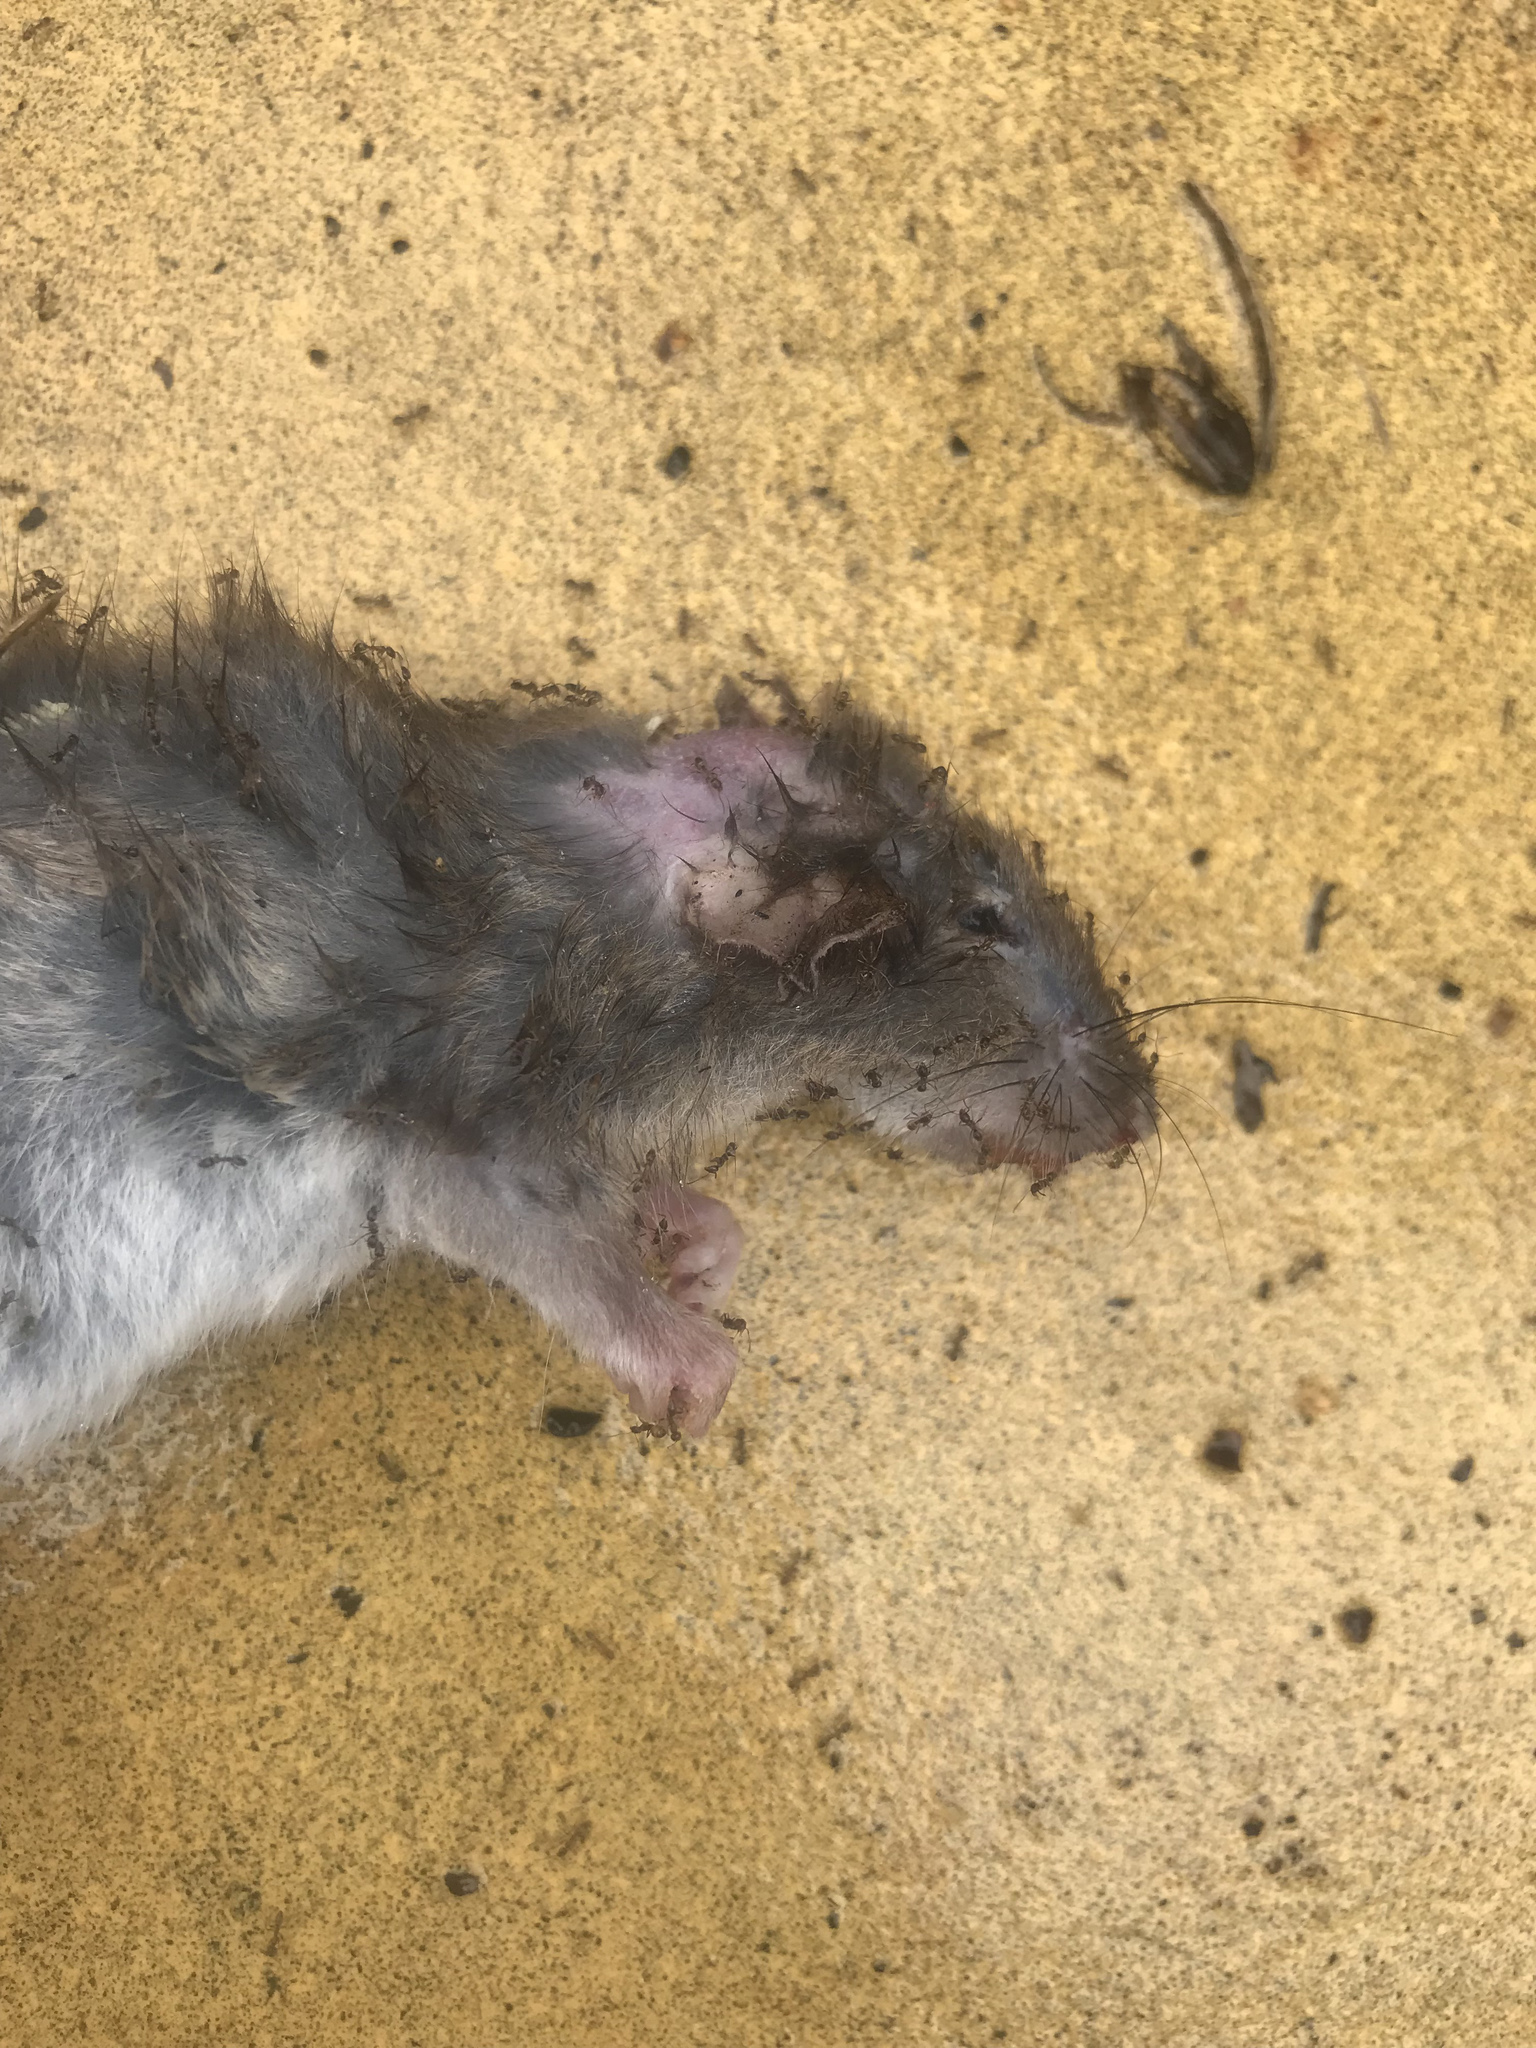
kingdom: Animalia
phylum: Chordata
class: Mammalia
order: Rodentia
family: Muridae
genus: Rattus
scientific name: Rattus norvegicus
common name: Brown rat
